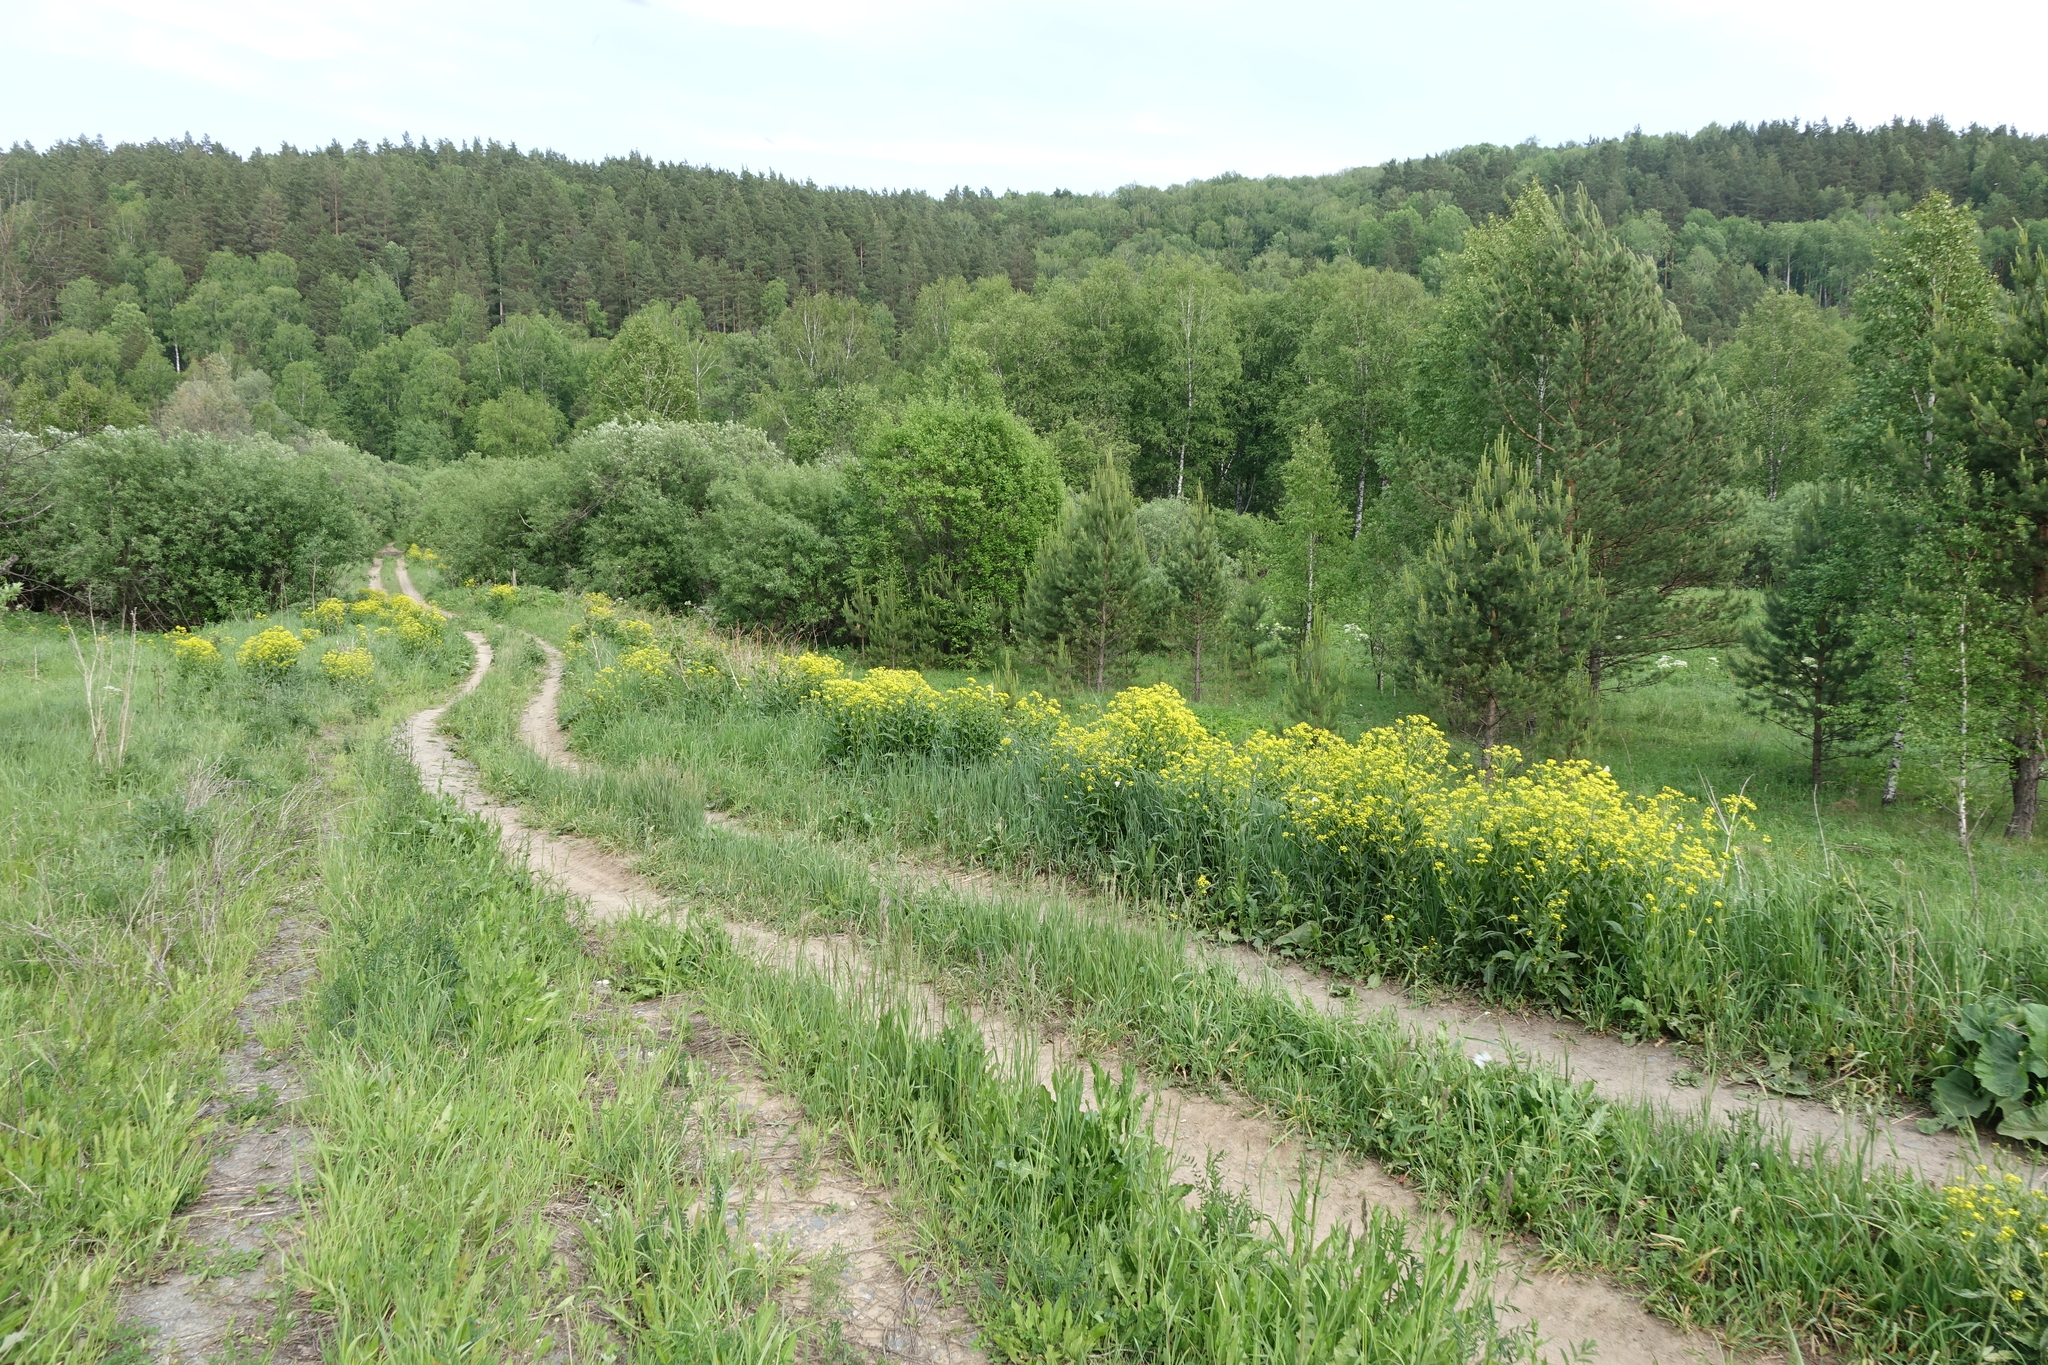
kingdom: Plantae
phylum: Tracheophyta
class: Magnoliopsida
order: Brassicales
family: Brassicaceae
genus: Bunias
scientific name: Bunias orientalis
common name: Warty-cabbage
